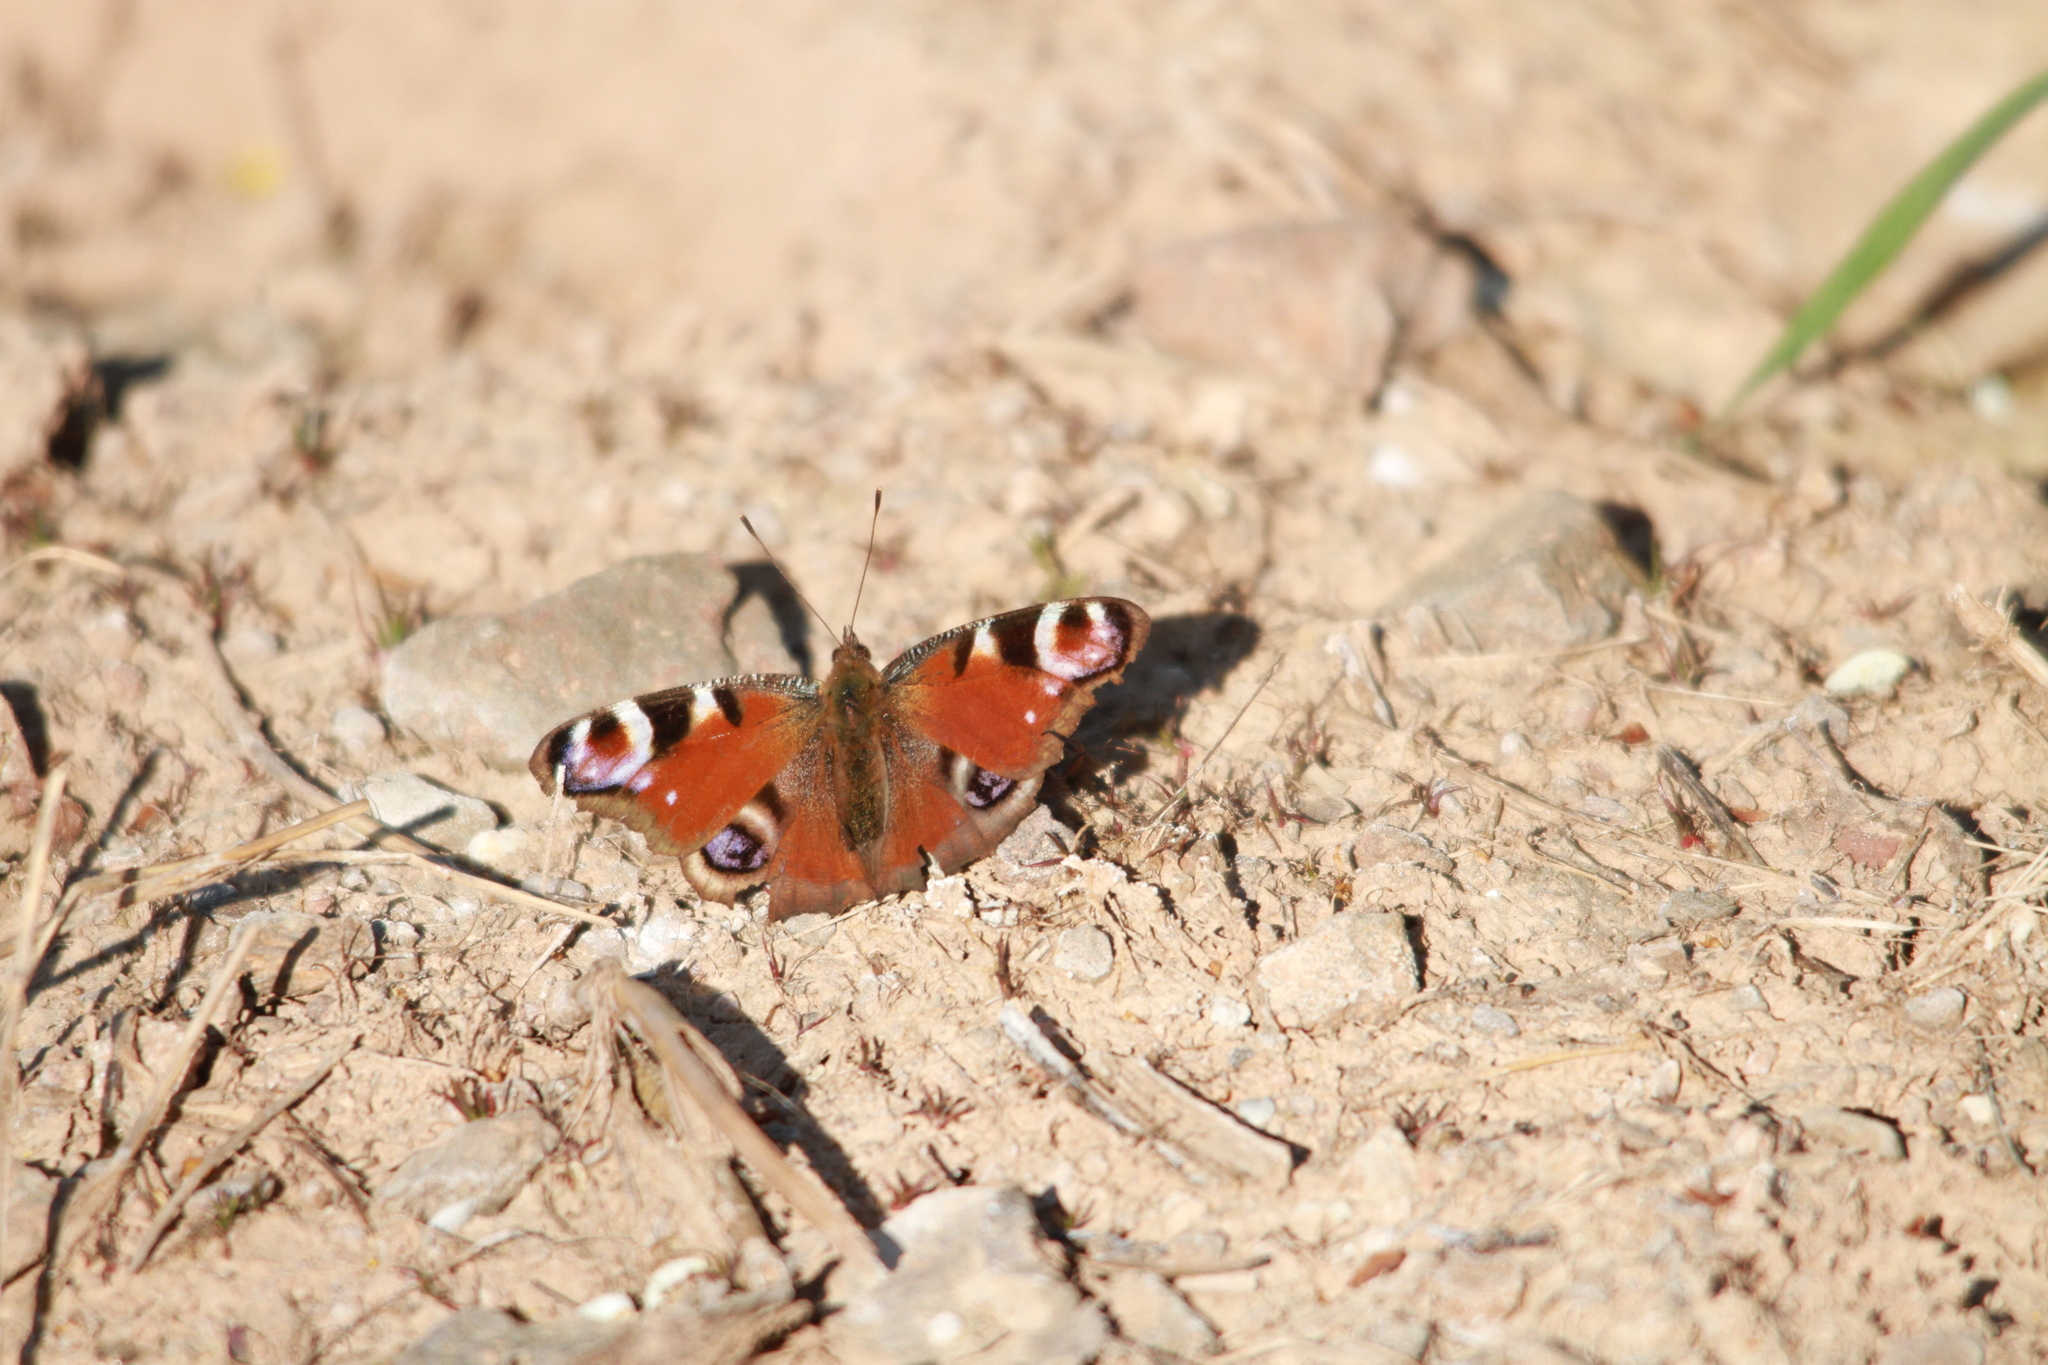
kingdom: Animalia
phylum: Arthropoda
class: Insecta
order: Lepidoptera
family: Nymphalidae
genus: Aglais
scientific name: Aglais io
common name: Peacock
